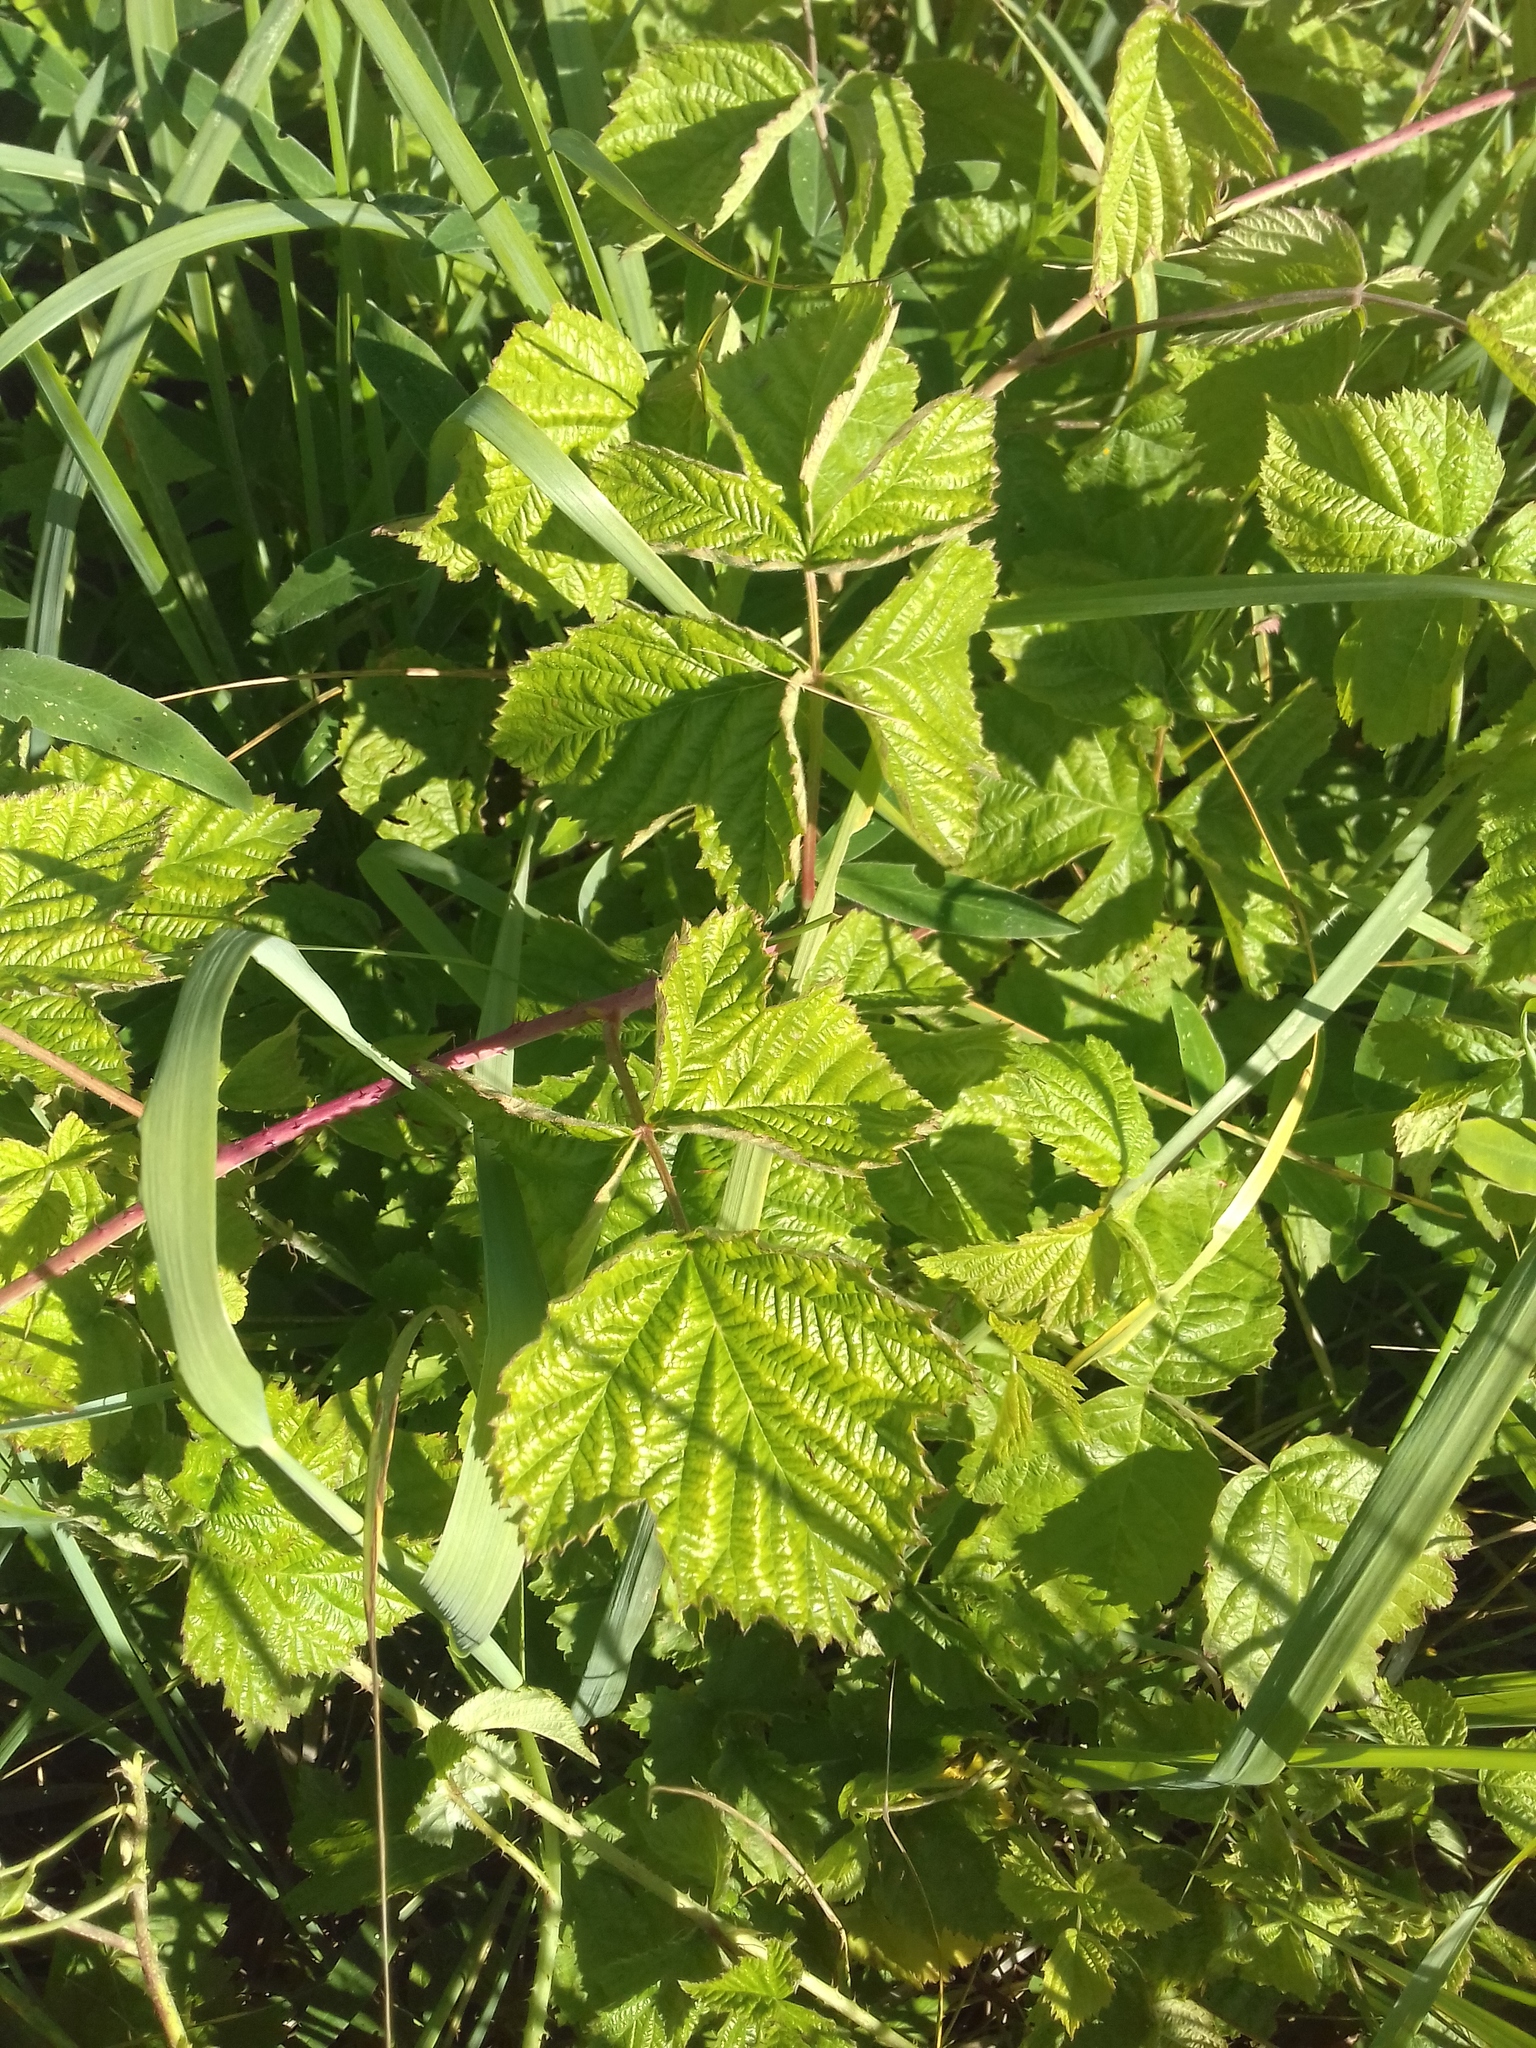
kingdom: Plantae
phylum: Tracheophyta
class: Magnoliopsida
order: Rosales
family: Rosaceae
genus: Rubus
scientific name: Rubus caesius
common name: Dewberry
